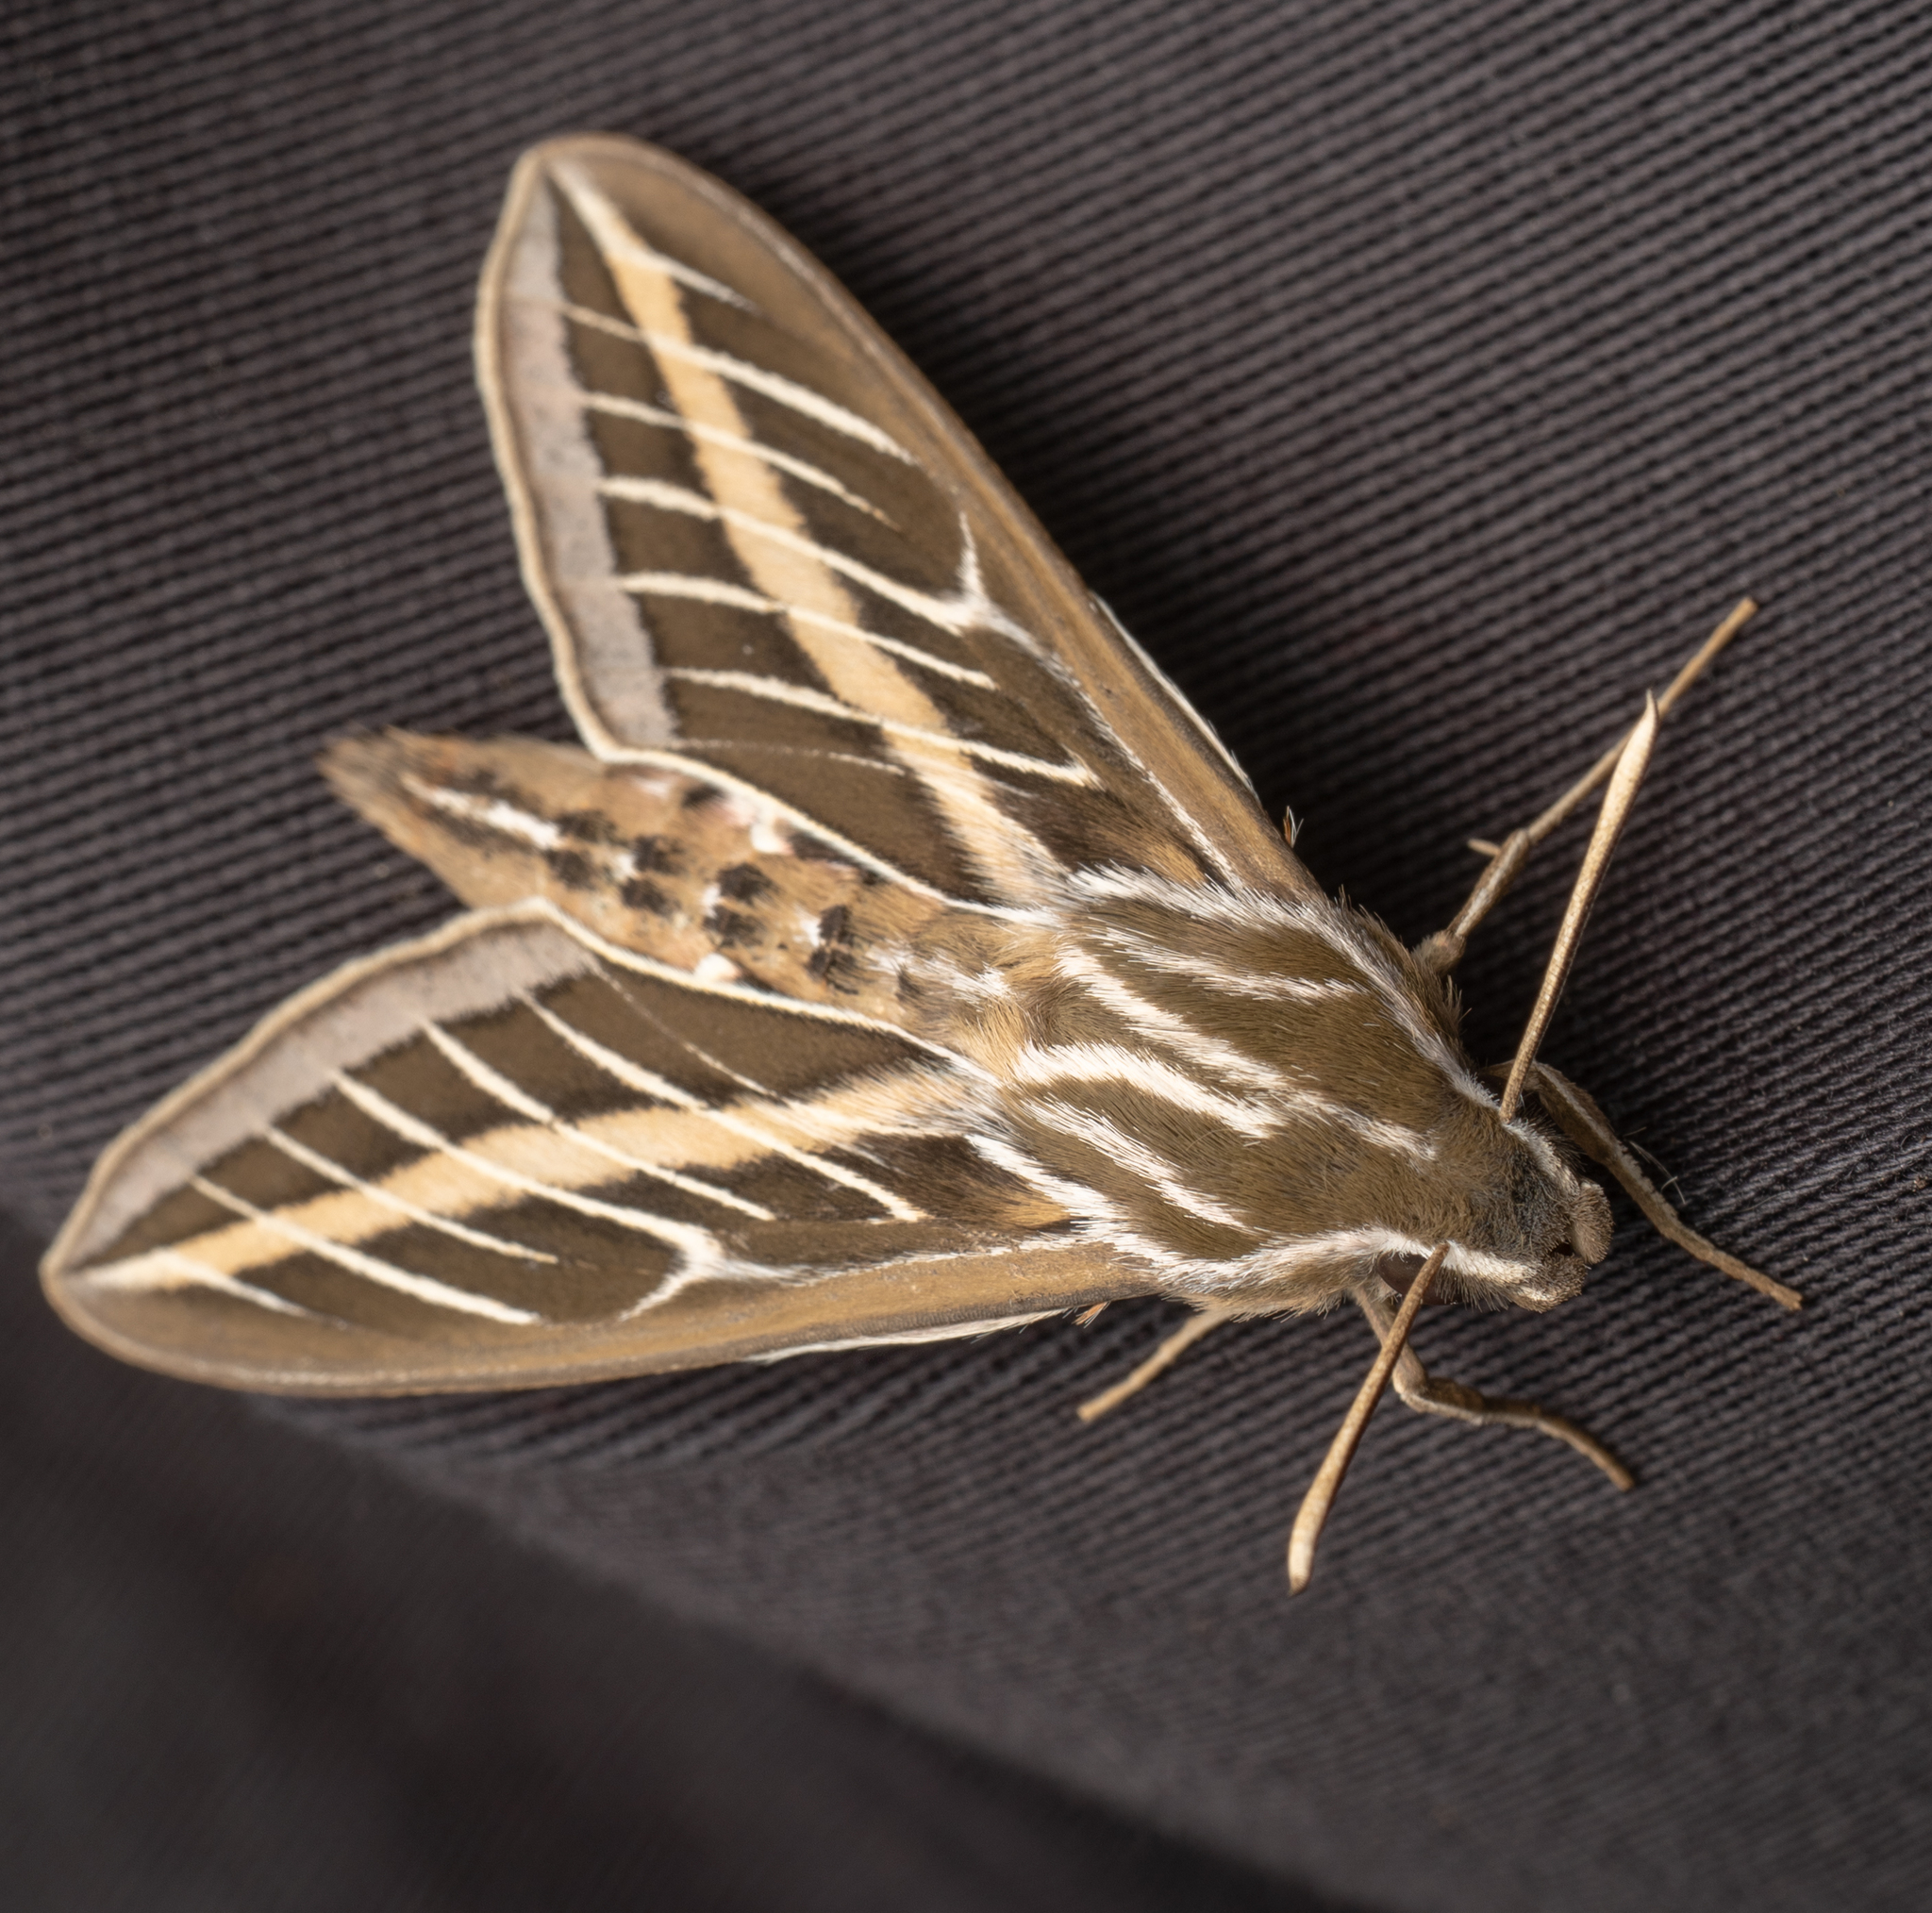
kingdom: Animalia
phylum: Arthropoda
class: Insecta
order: Lepidoptera
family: Sphingidae
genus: Hyles
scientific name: Hyles lineata
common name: White-lined sphinx
